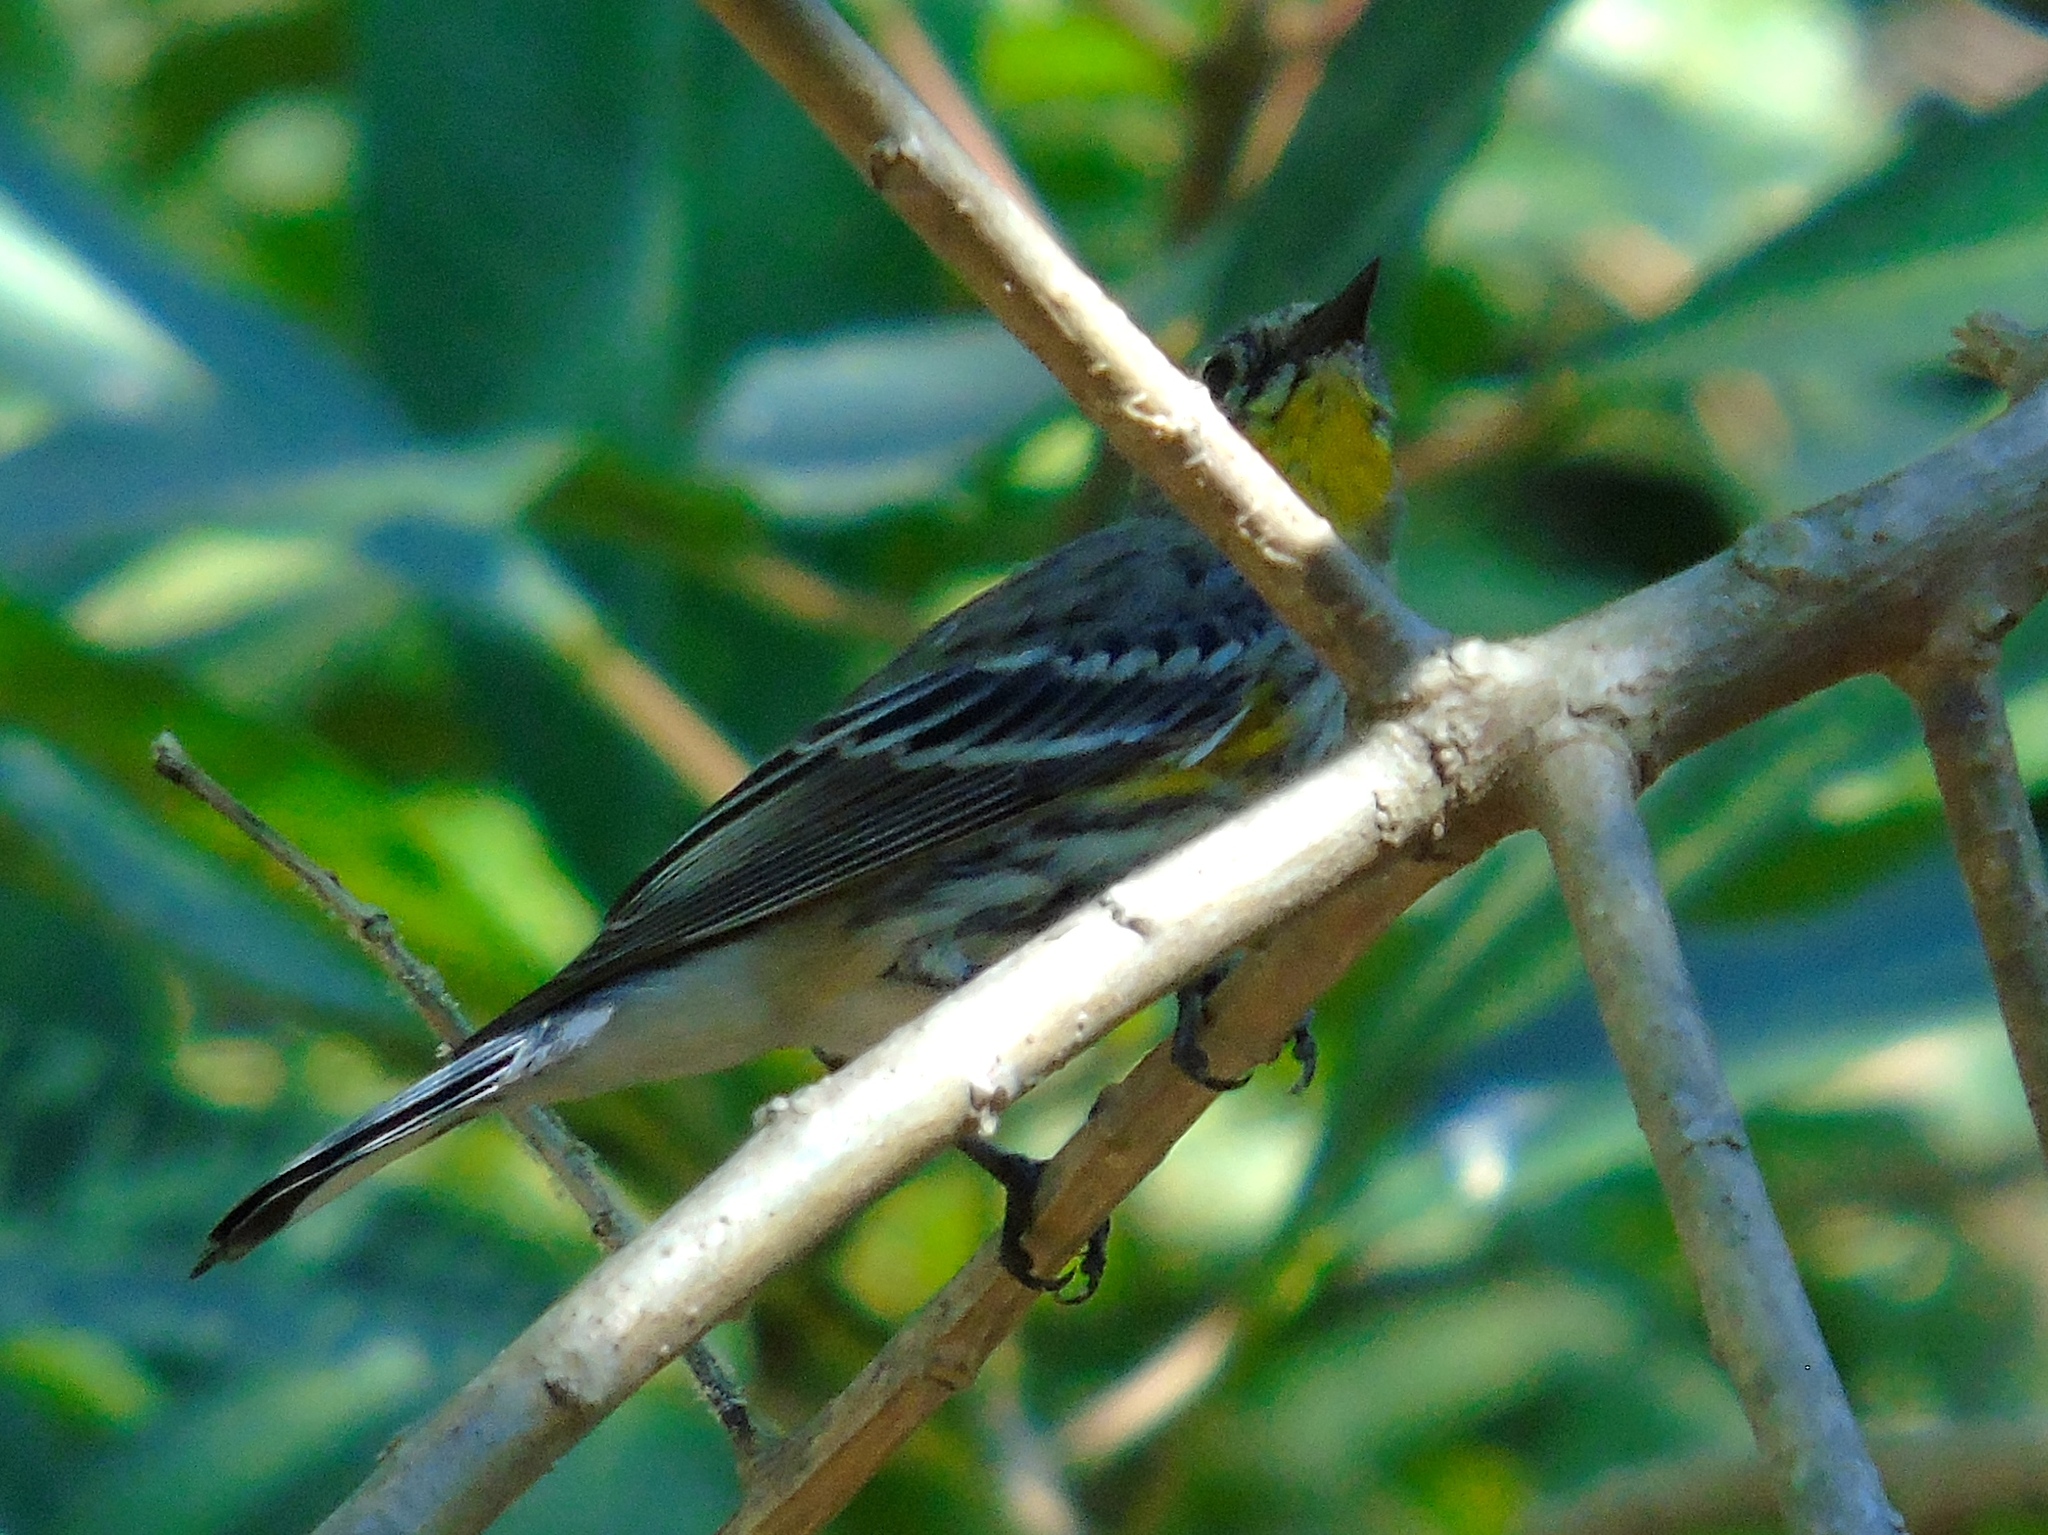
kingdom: Animalia
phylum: Chordata
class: Aves
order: Passeriformes
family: Parulidae
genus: Setophaga
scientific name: Setophaga coronata
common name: Myrtle warbler
